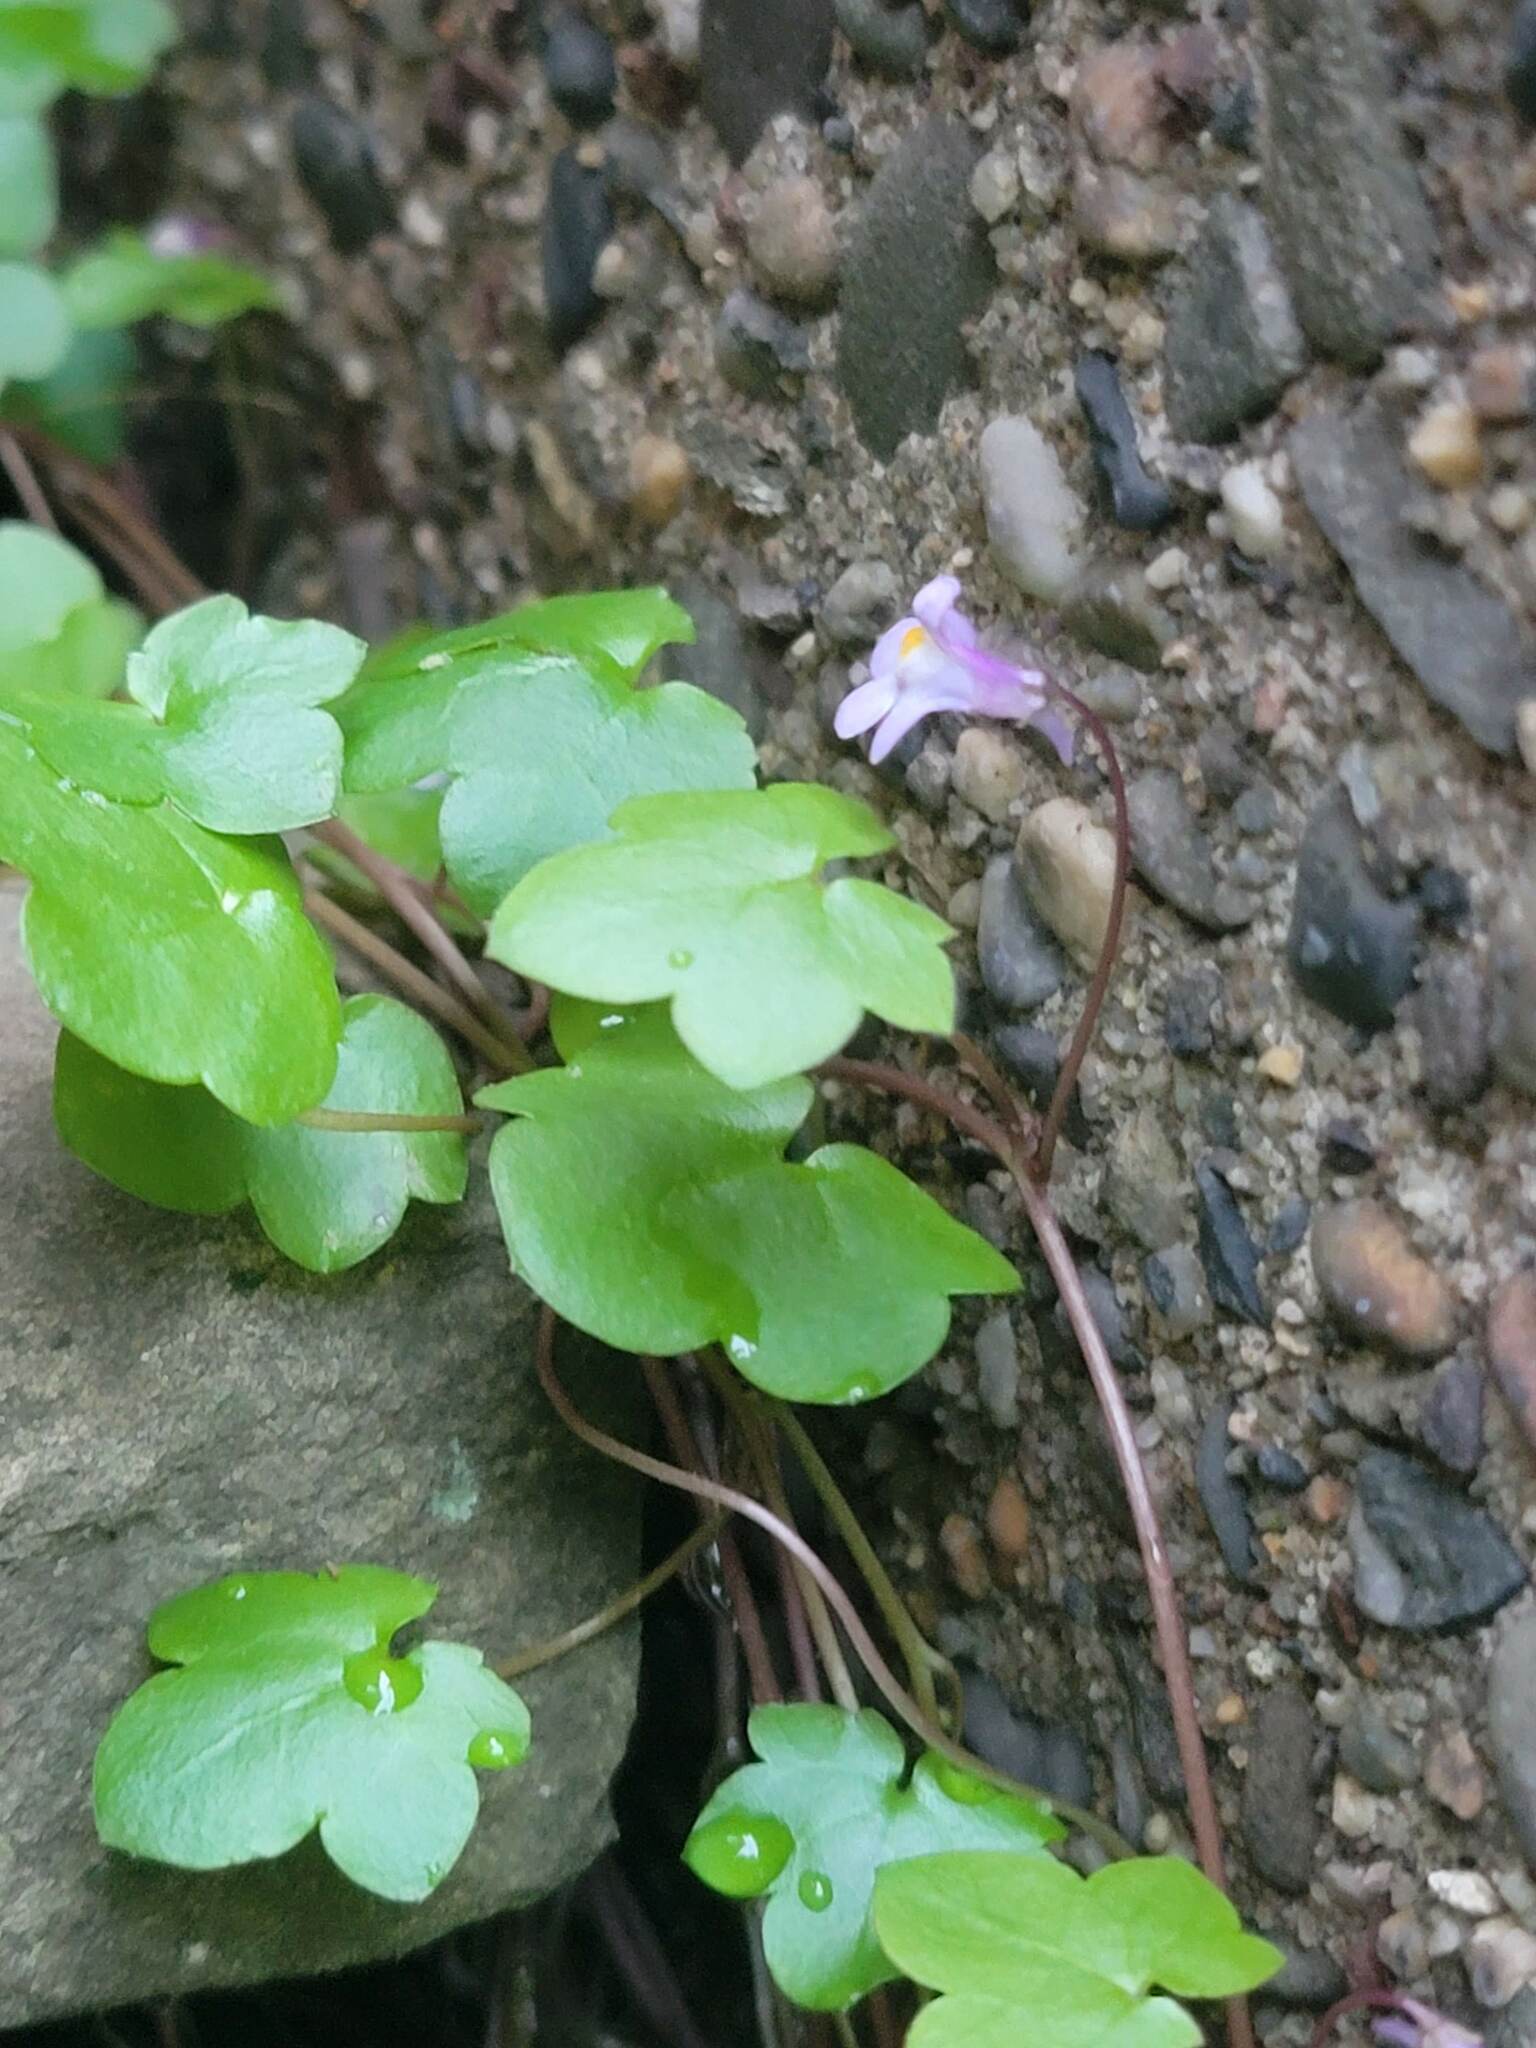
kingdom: Plantae
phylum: Tracheophyta
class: Magnoliopsida
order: Lamiales
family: Plantaginaceae
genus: Cymbalaria
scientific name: Cymbalaria muralis
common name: Ivy-leaved toadflax
